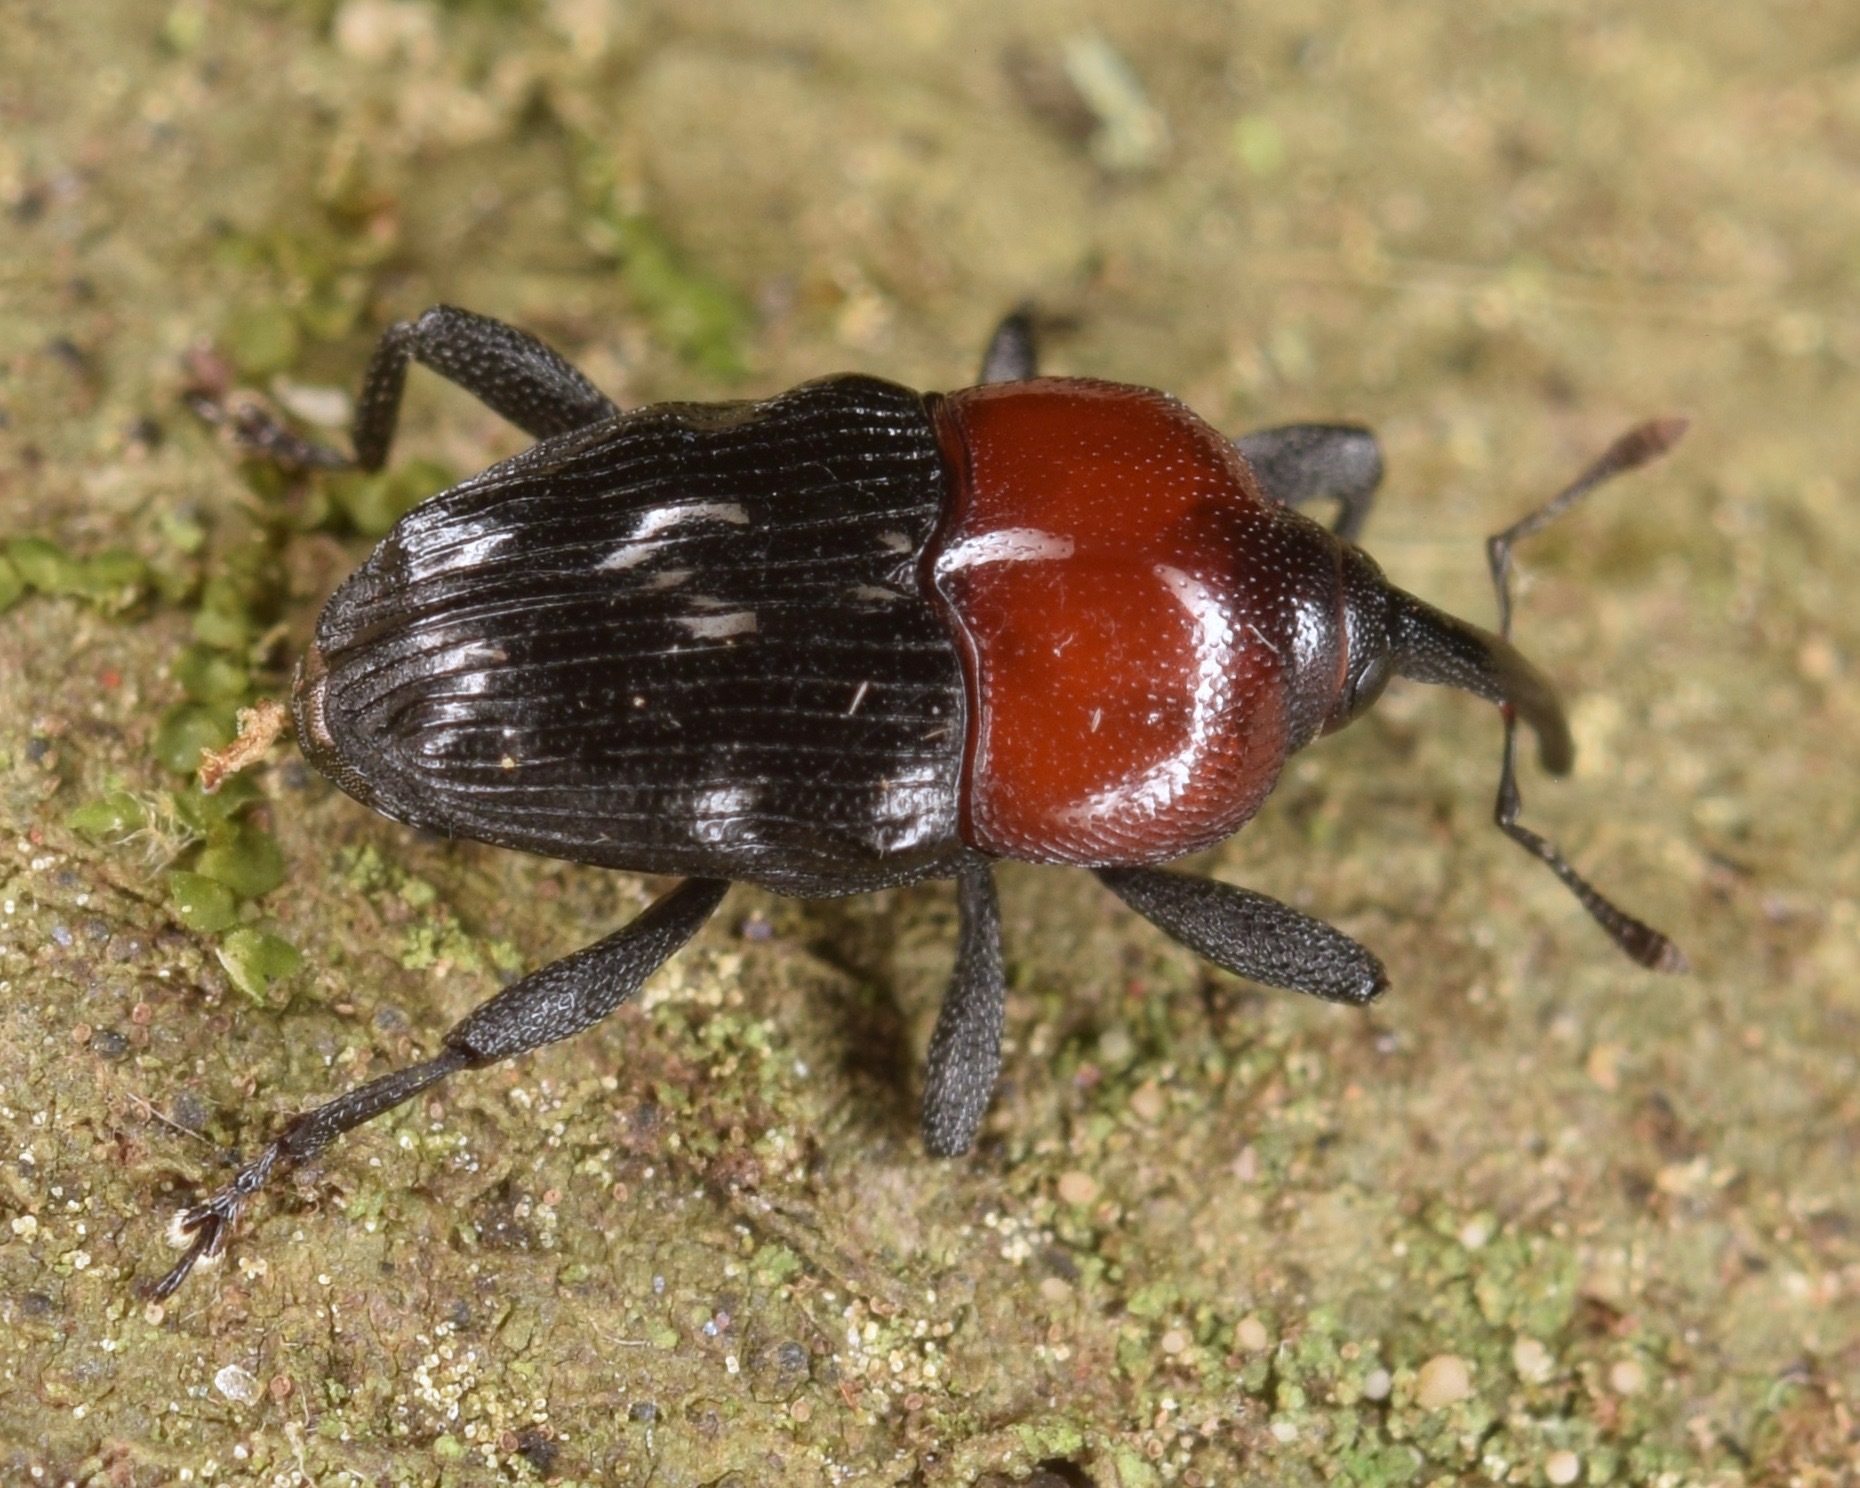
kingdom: Animalia
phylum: Arthropoda
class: Insecta
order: Coleoptera
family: Curculionidae
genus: Madarellus
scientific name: Madarellus undulatus
